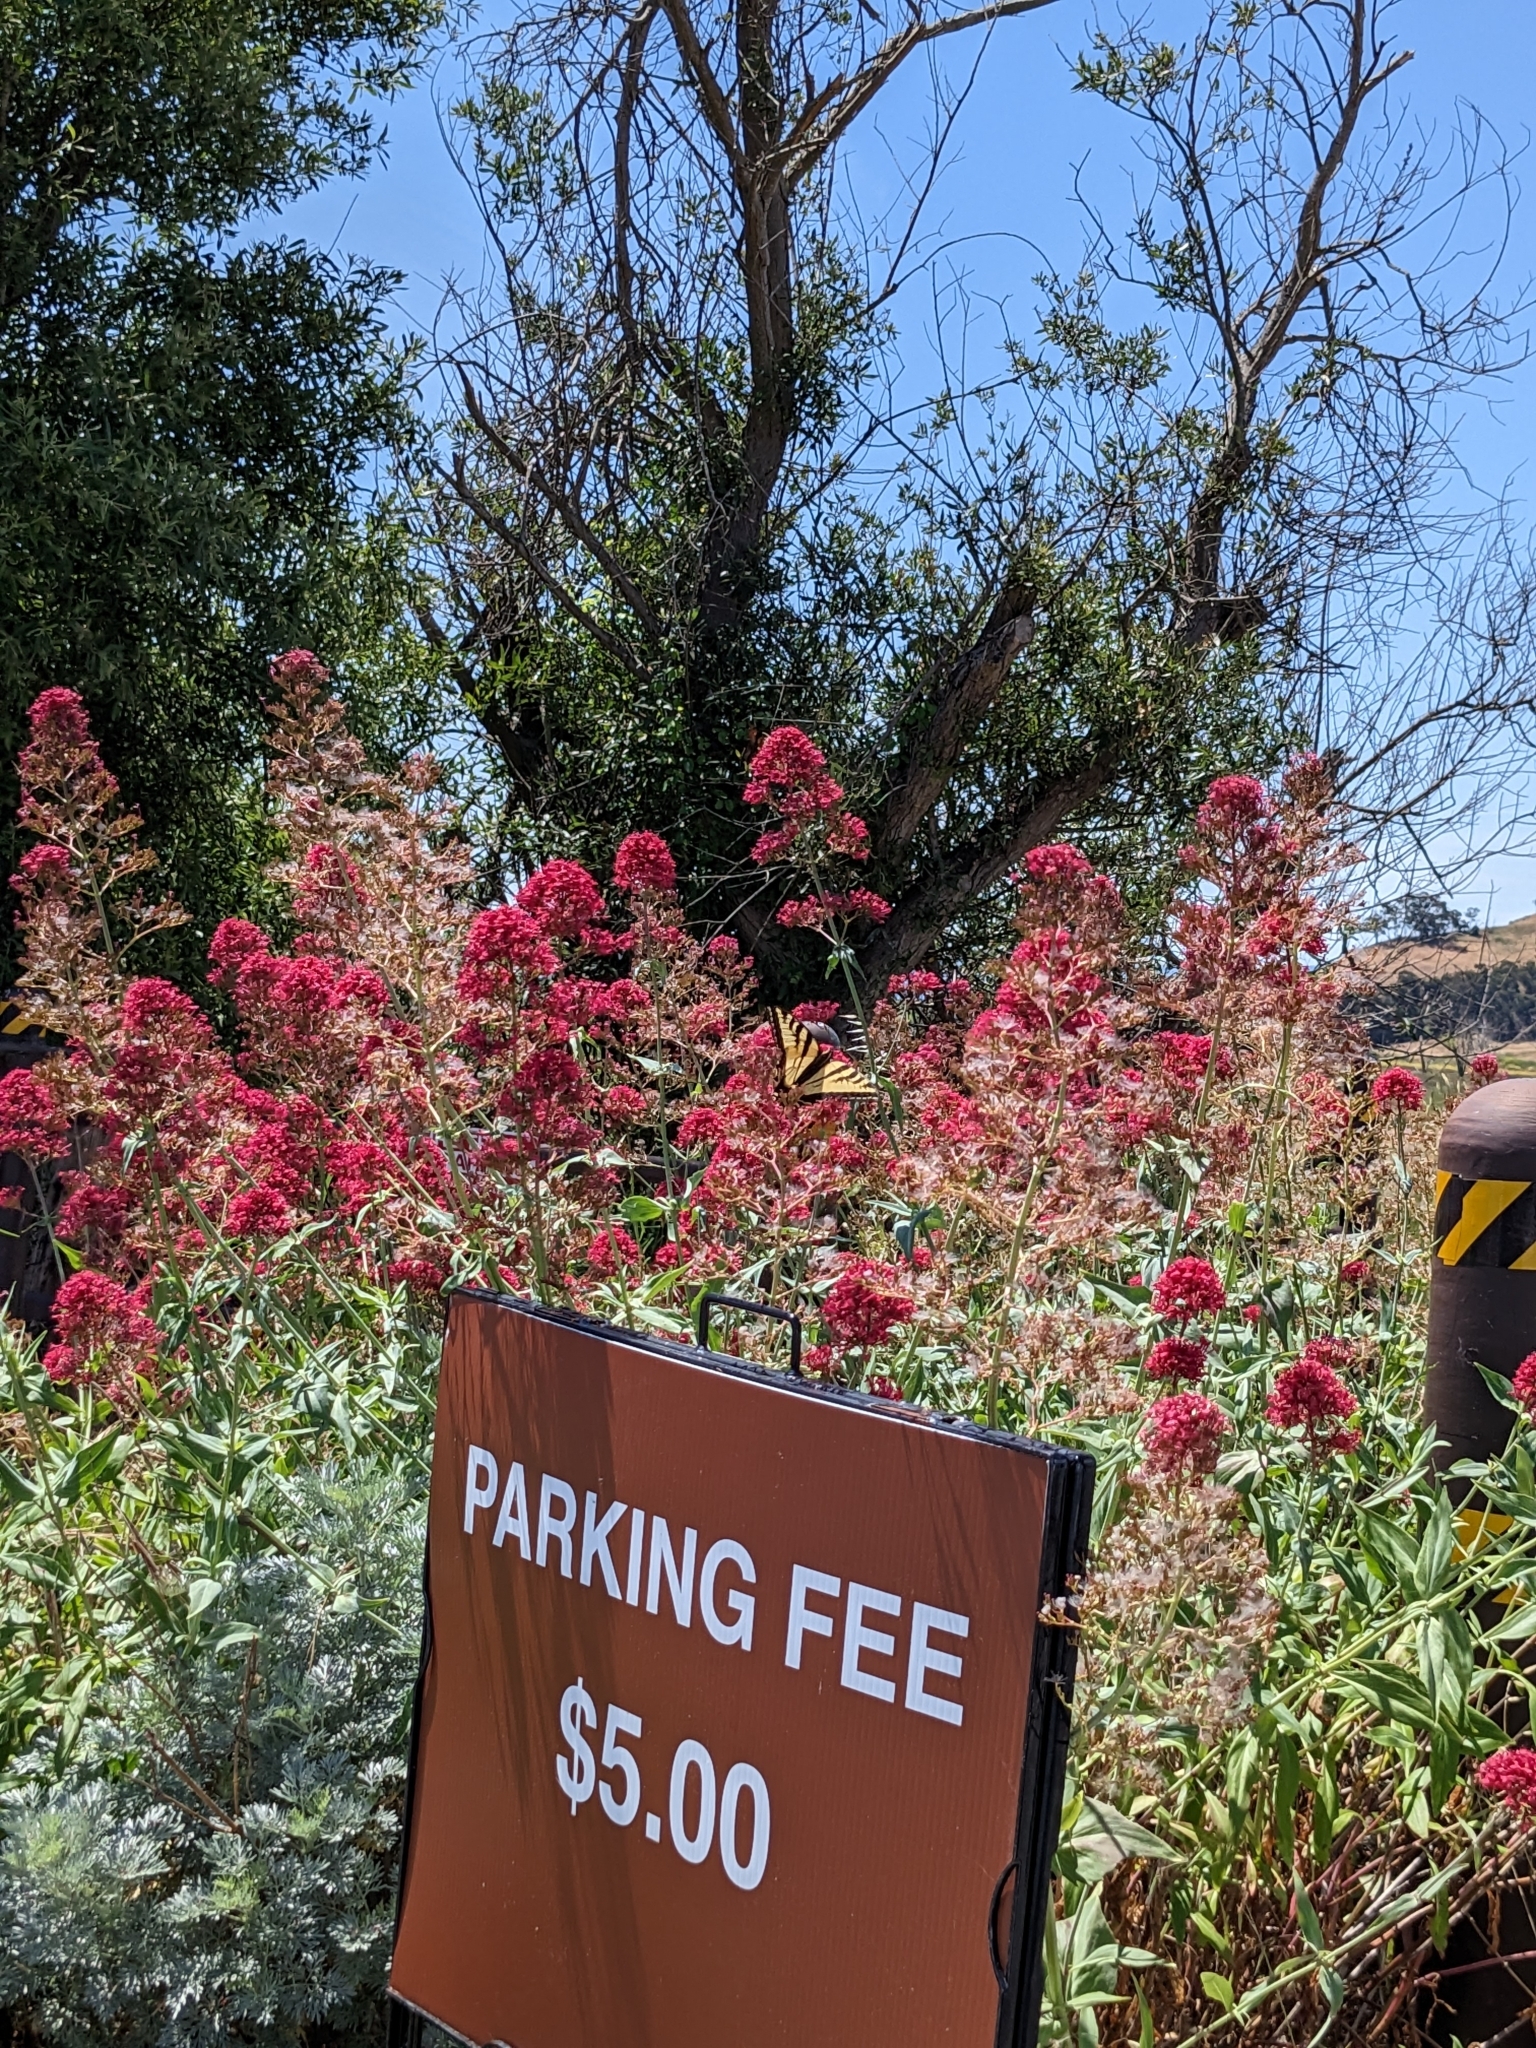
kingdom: Animalia
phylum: Arthropoda
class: Insecta
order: Lepidoptera
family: Papilionidae
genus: Papilio
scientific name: Papilio rutulus
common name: Western tiger swallowtail
